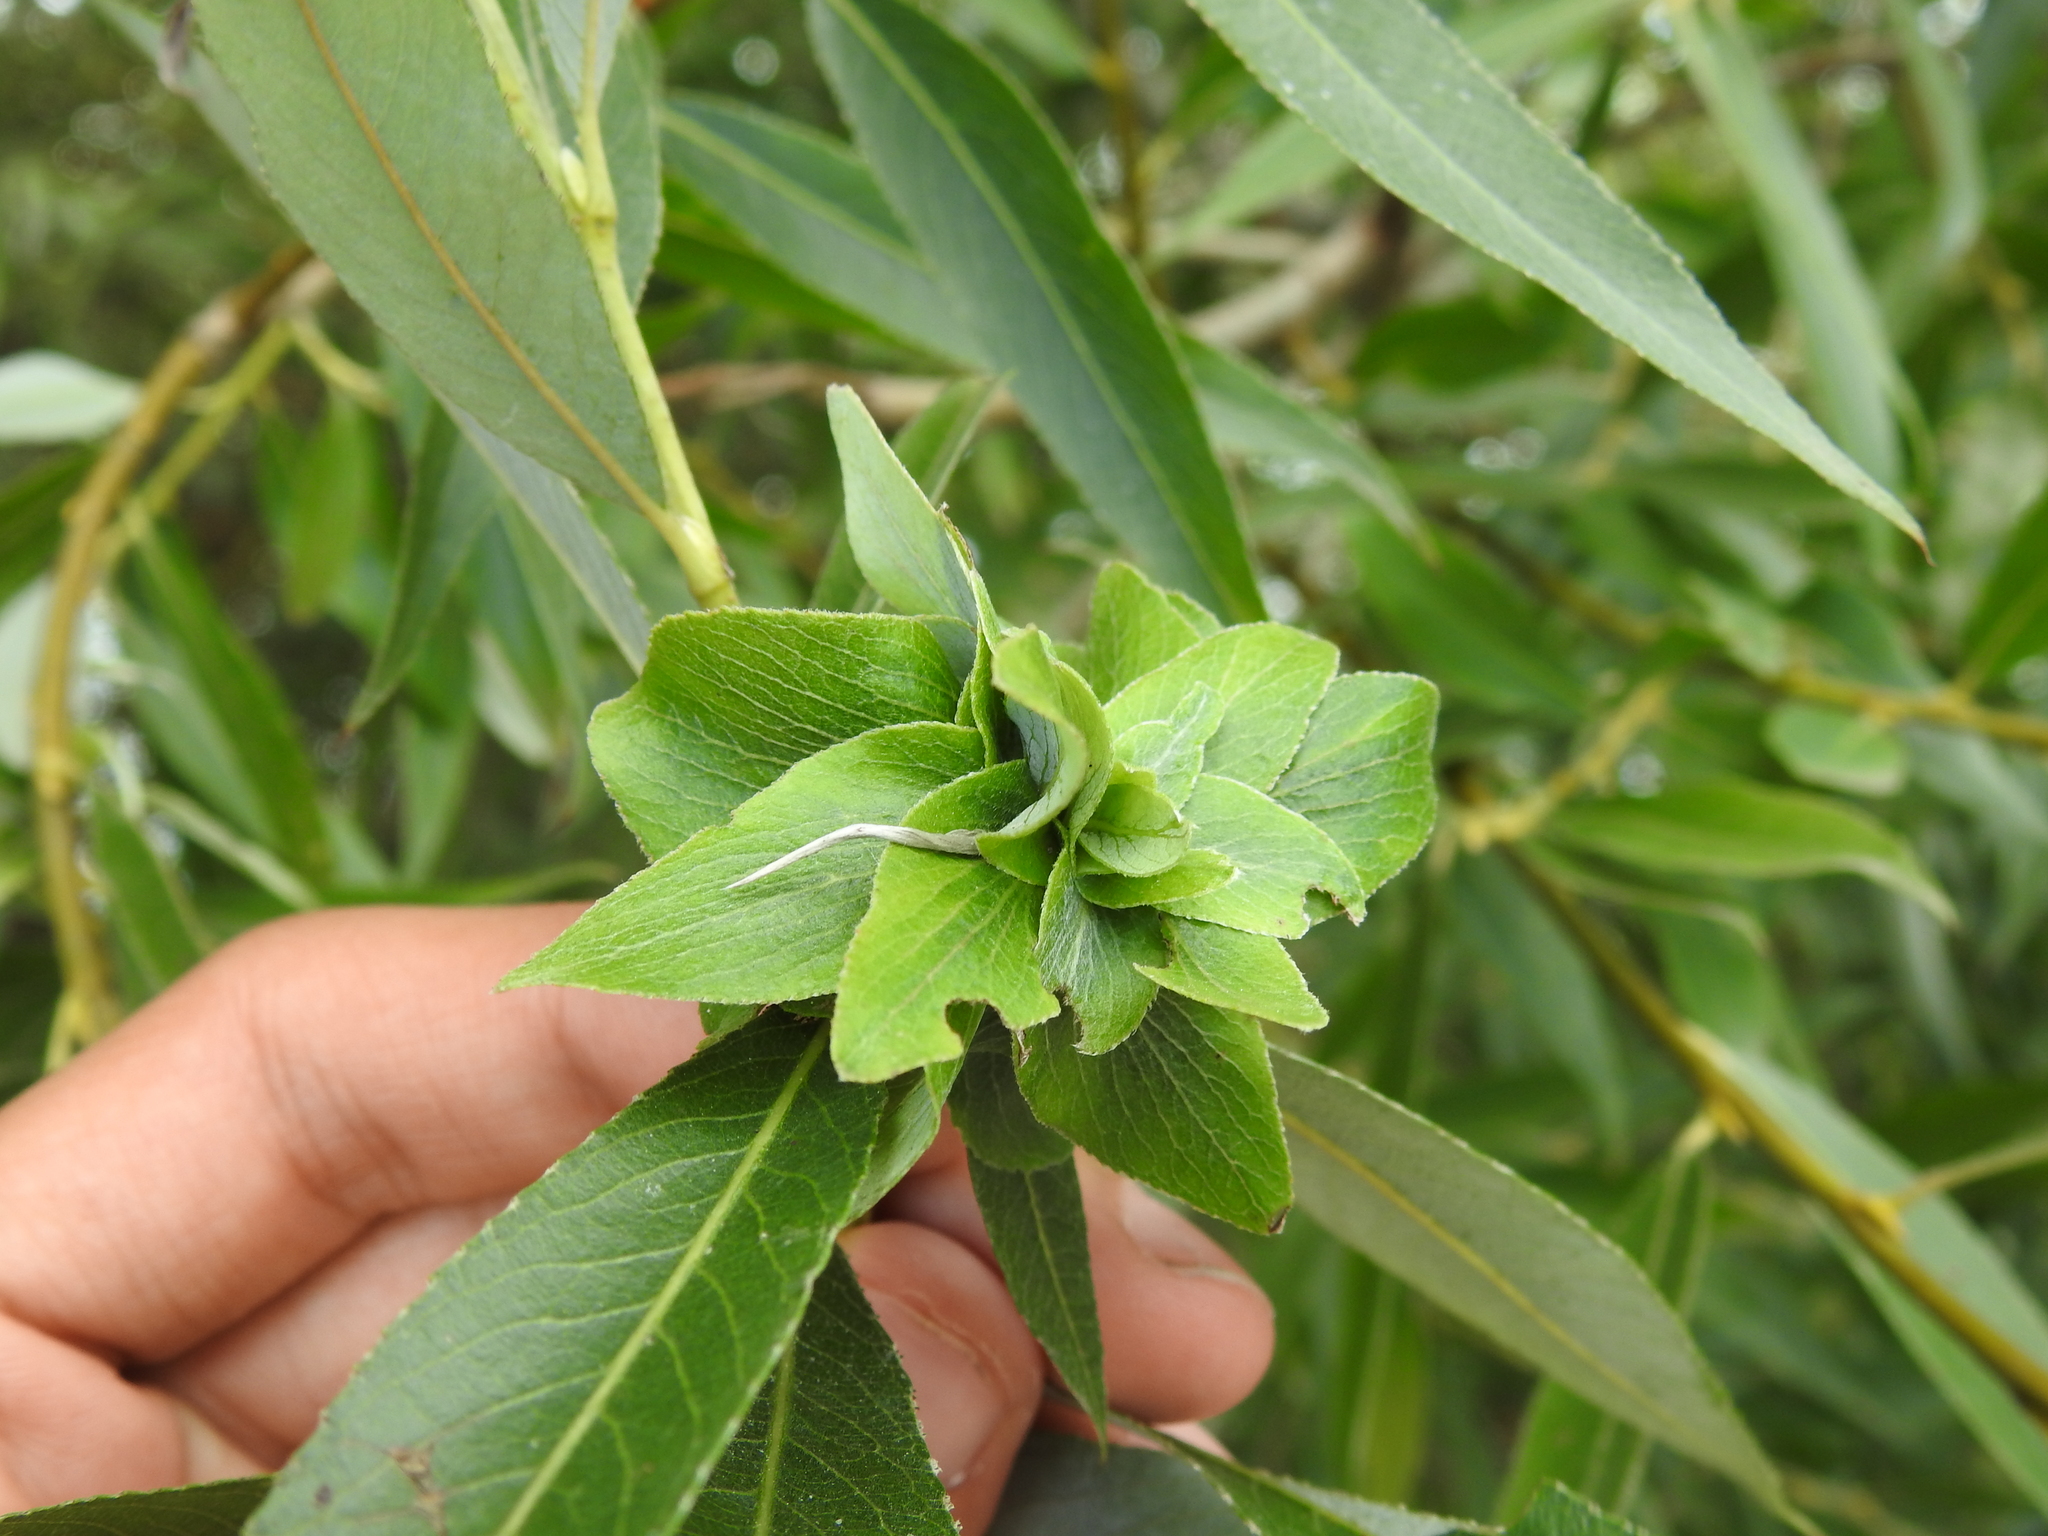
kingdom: Animalia
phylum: Arthropoda
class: Insecta
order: Diptera
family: Cecidomyiidae
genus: Rabdophaga
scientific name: Rabdophaga rosaria
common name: Willow rose gall midge
